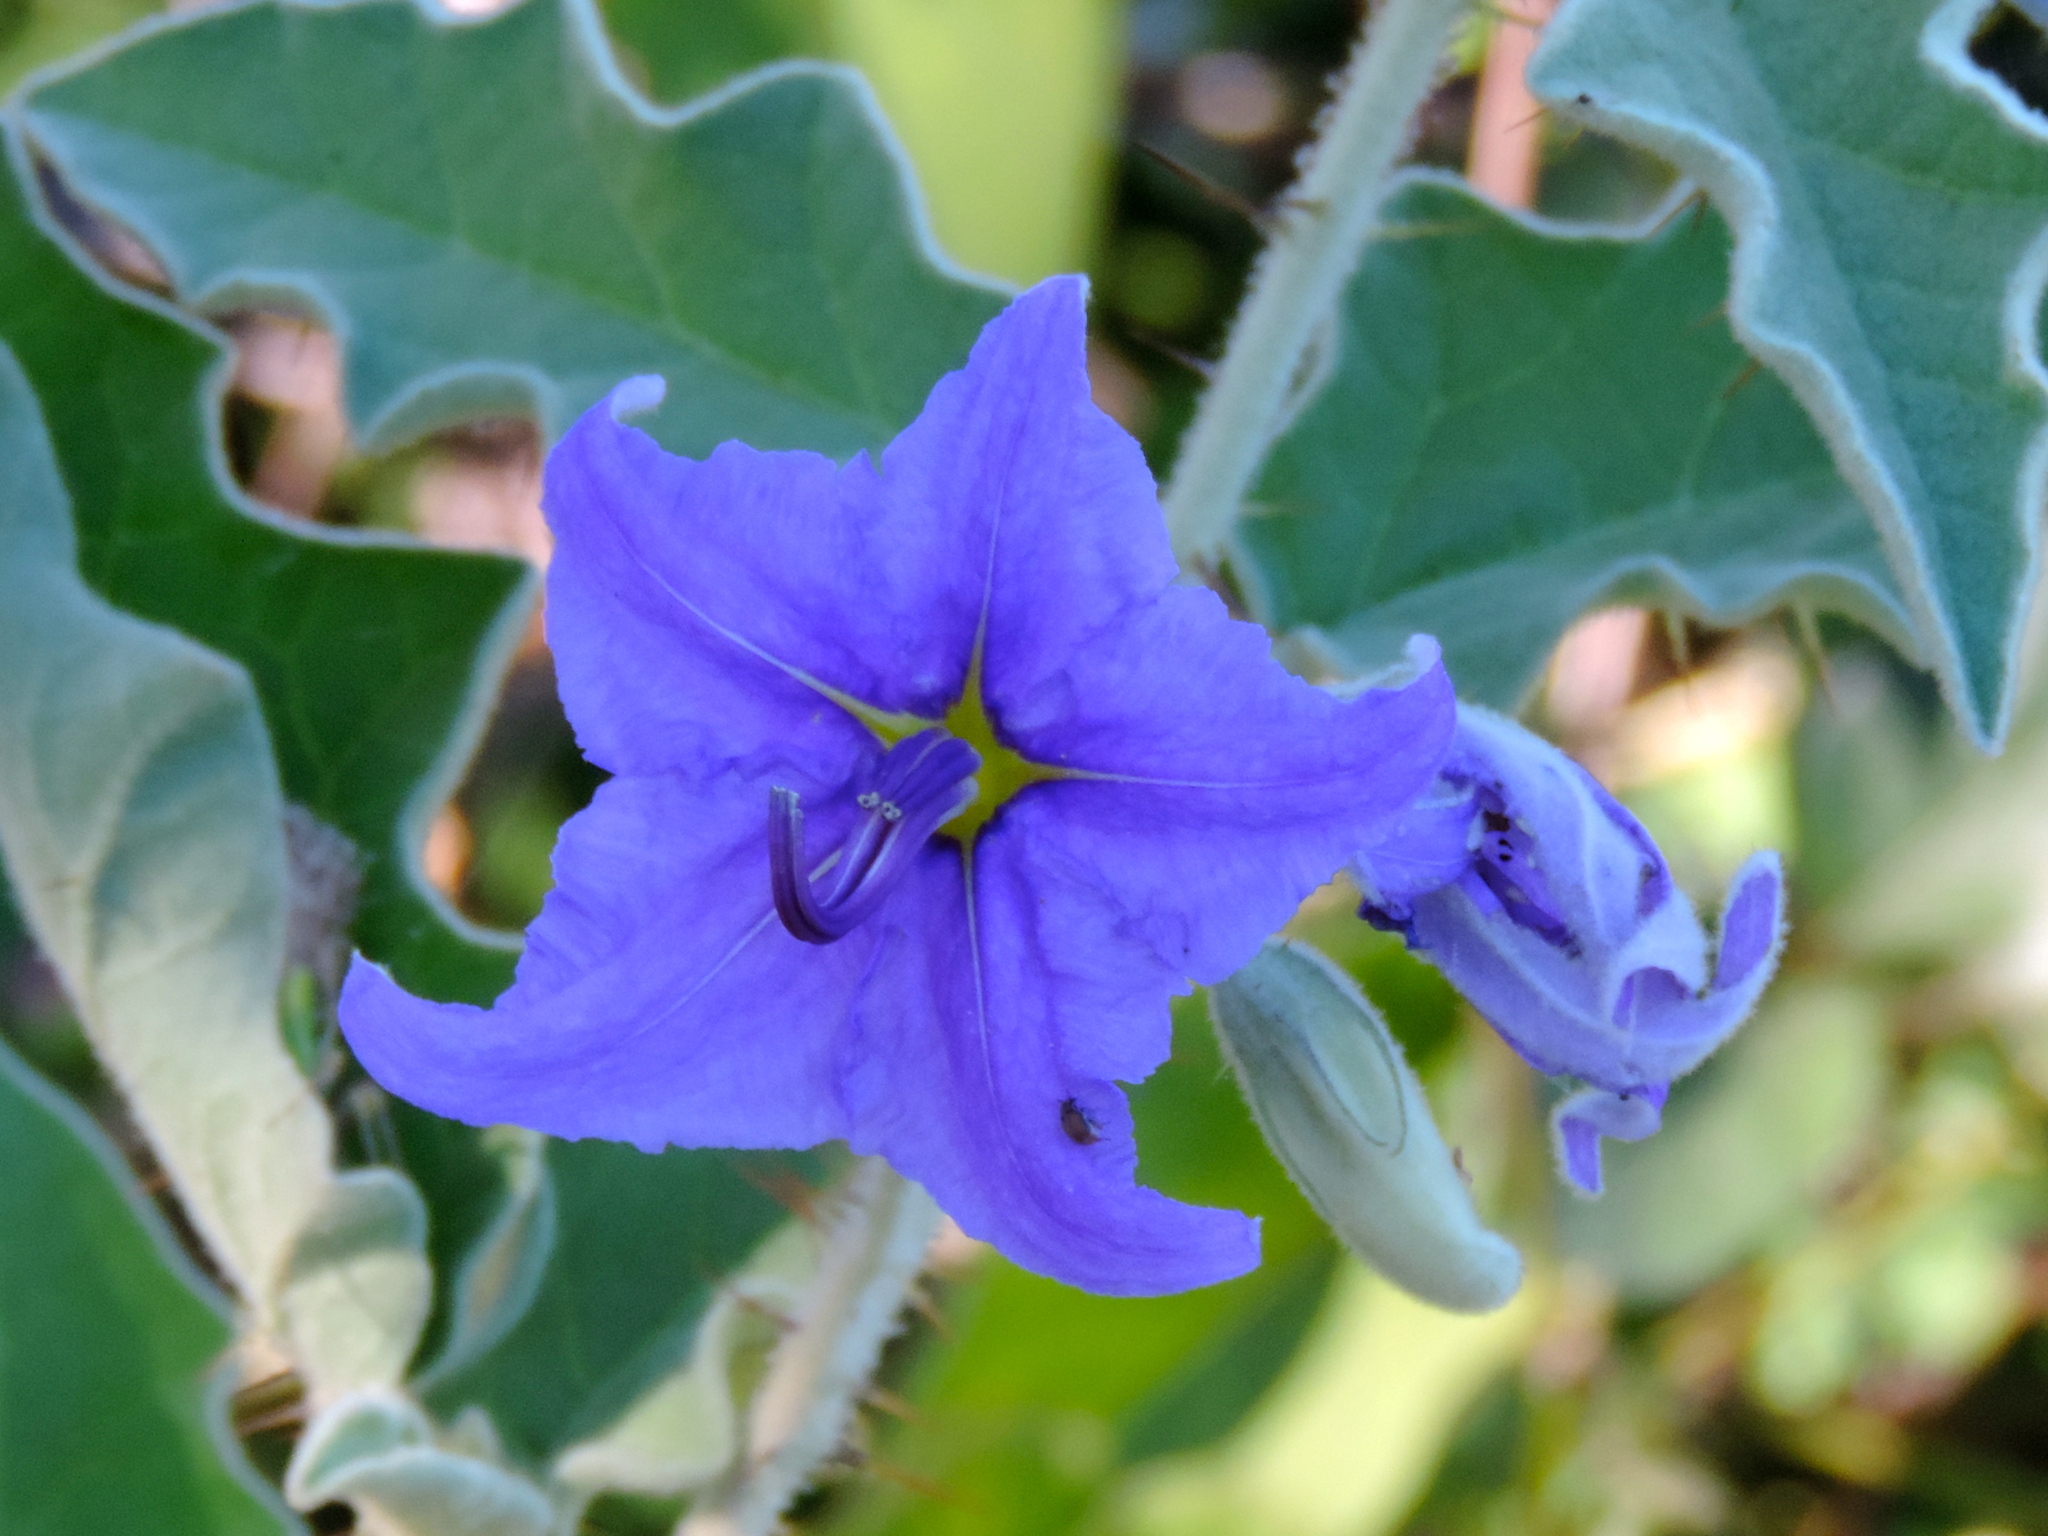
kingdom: Plantae
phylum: Tracheophyta
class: Magnoliopsida
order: Solanales
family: Solanaceae
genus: Solanum
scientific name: Solanum houstonii
